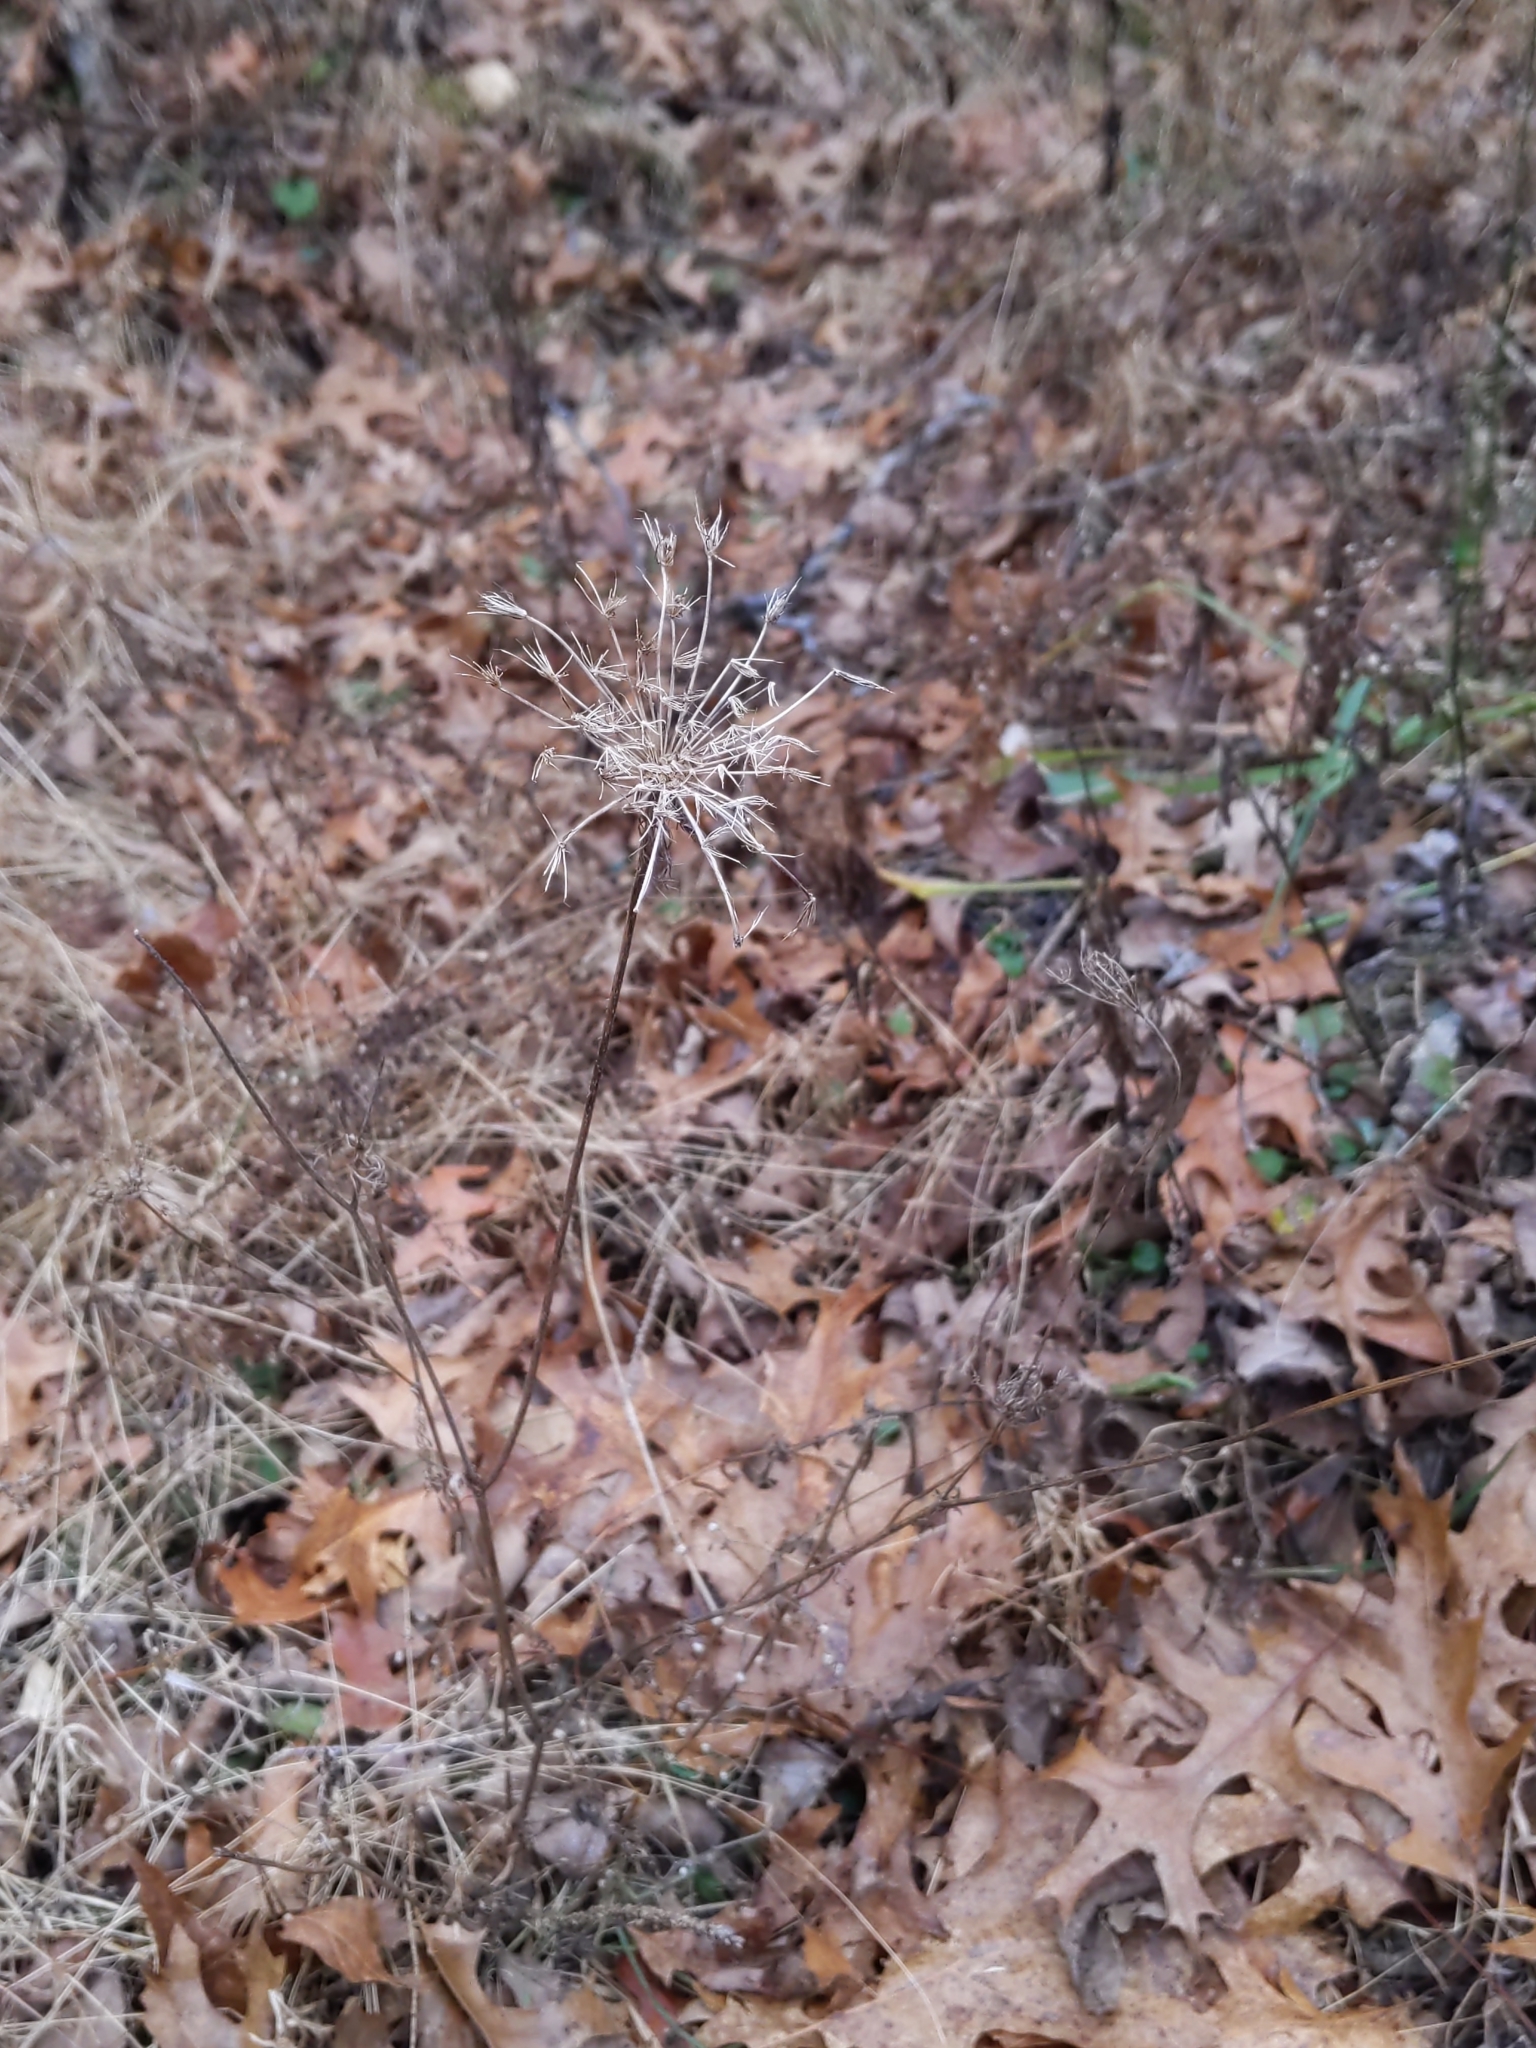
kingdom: Plantae
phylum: Tracheophyta
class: Magnoliopsida
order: Apiales
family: Apiaceae
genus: Daucus
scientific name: Daucus carota
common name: Wild carrot
